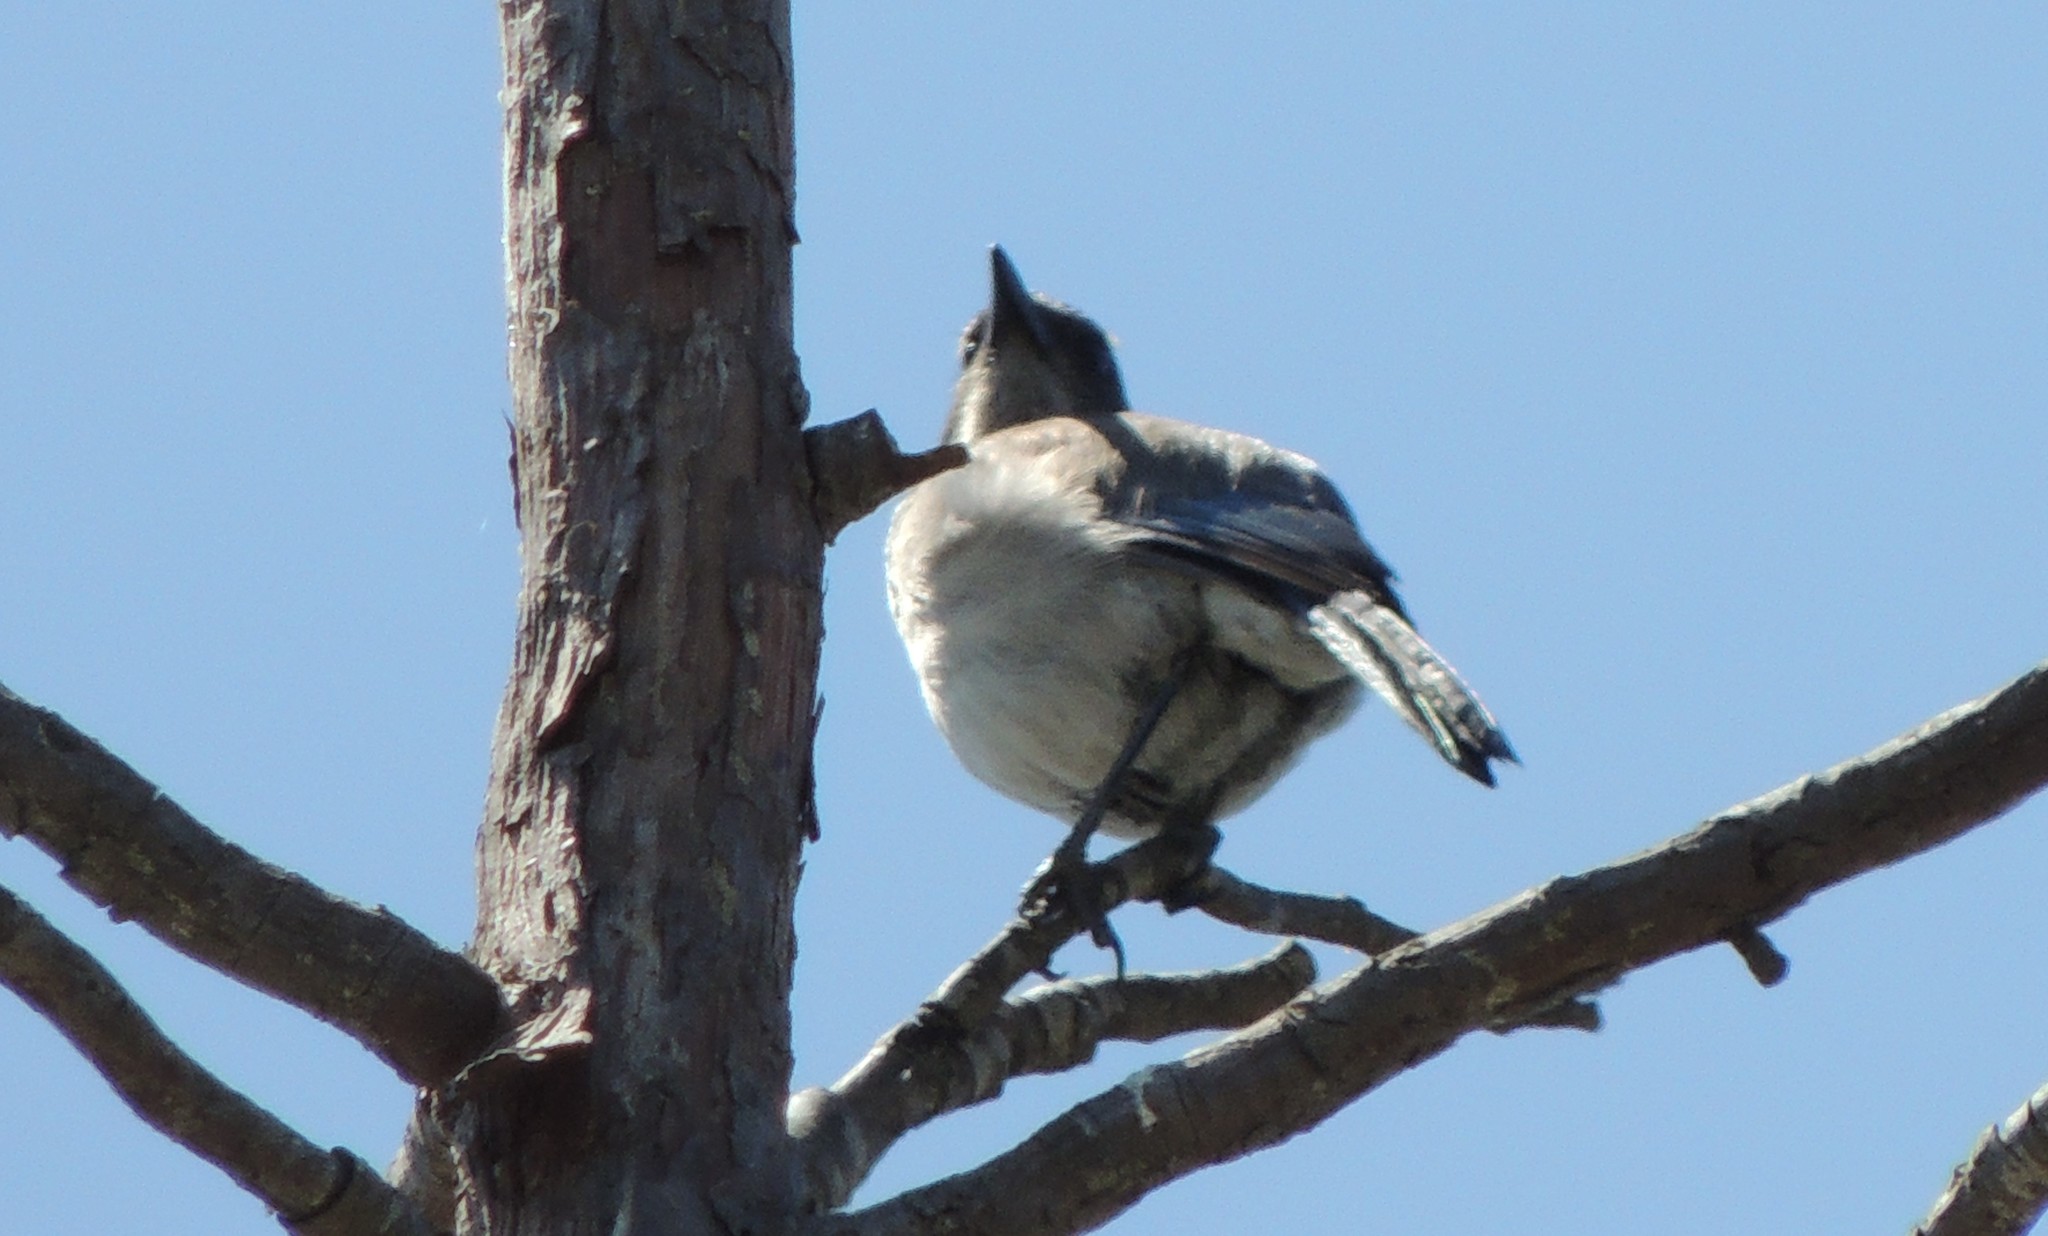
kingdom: Animalia
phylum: Chordata
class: Aves
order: Passeriformes
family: Corvidae
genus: Aphelocoma
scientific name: Aphelocoma californica
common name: California scrub-jay
